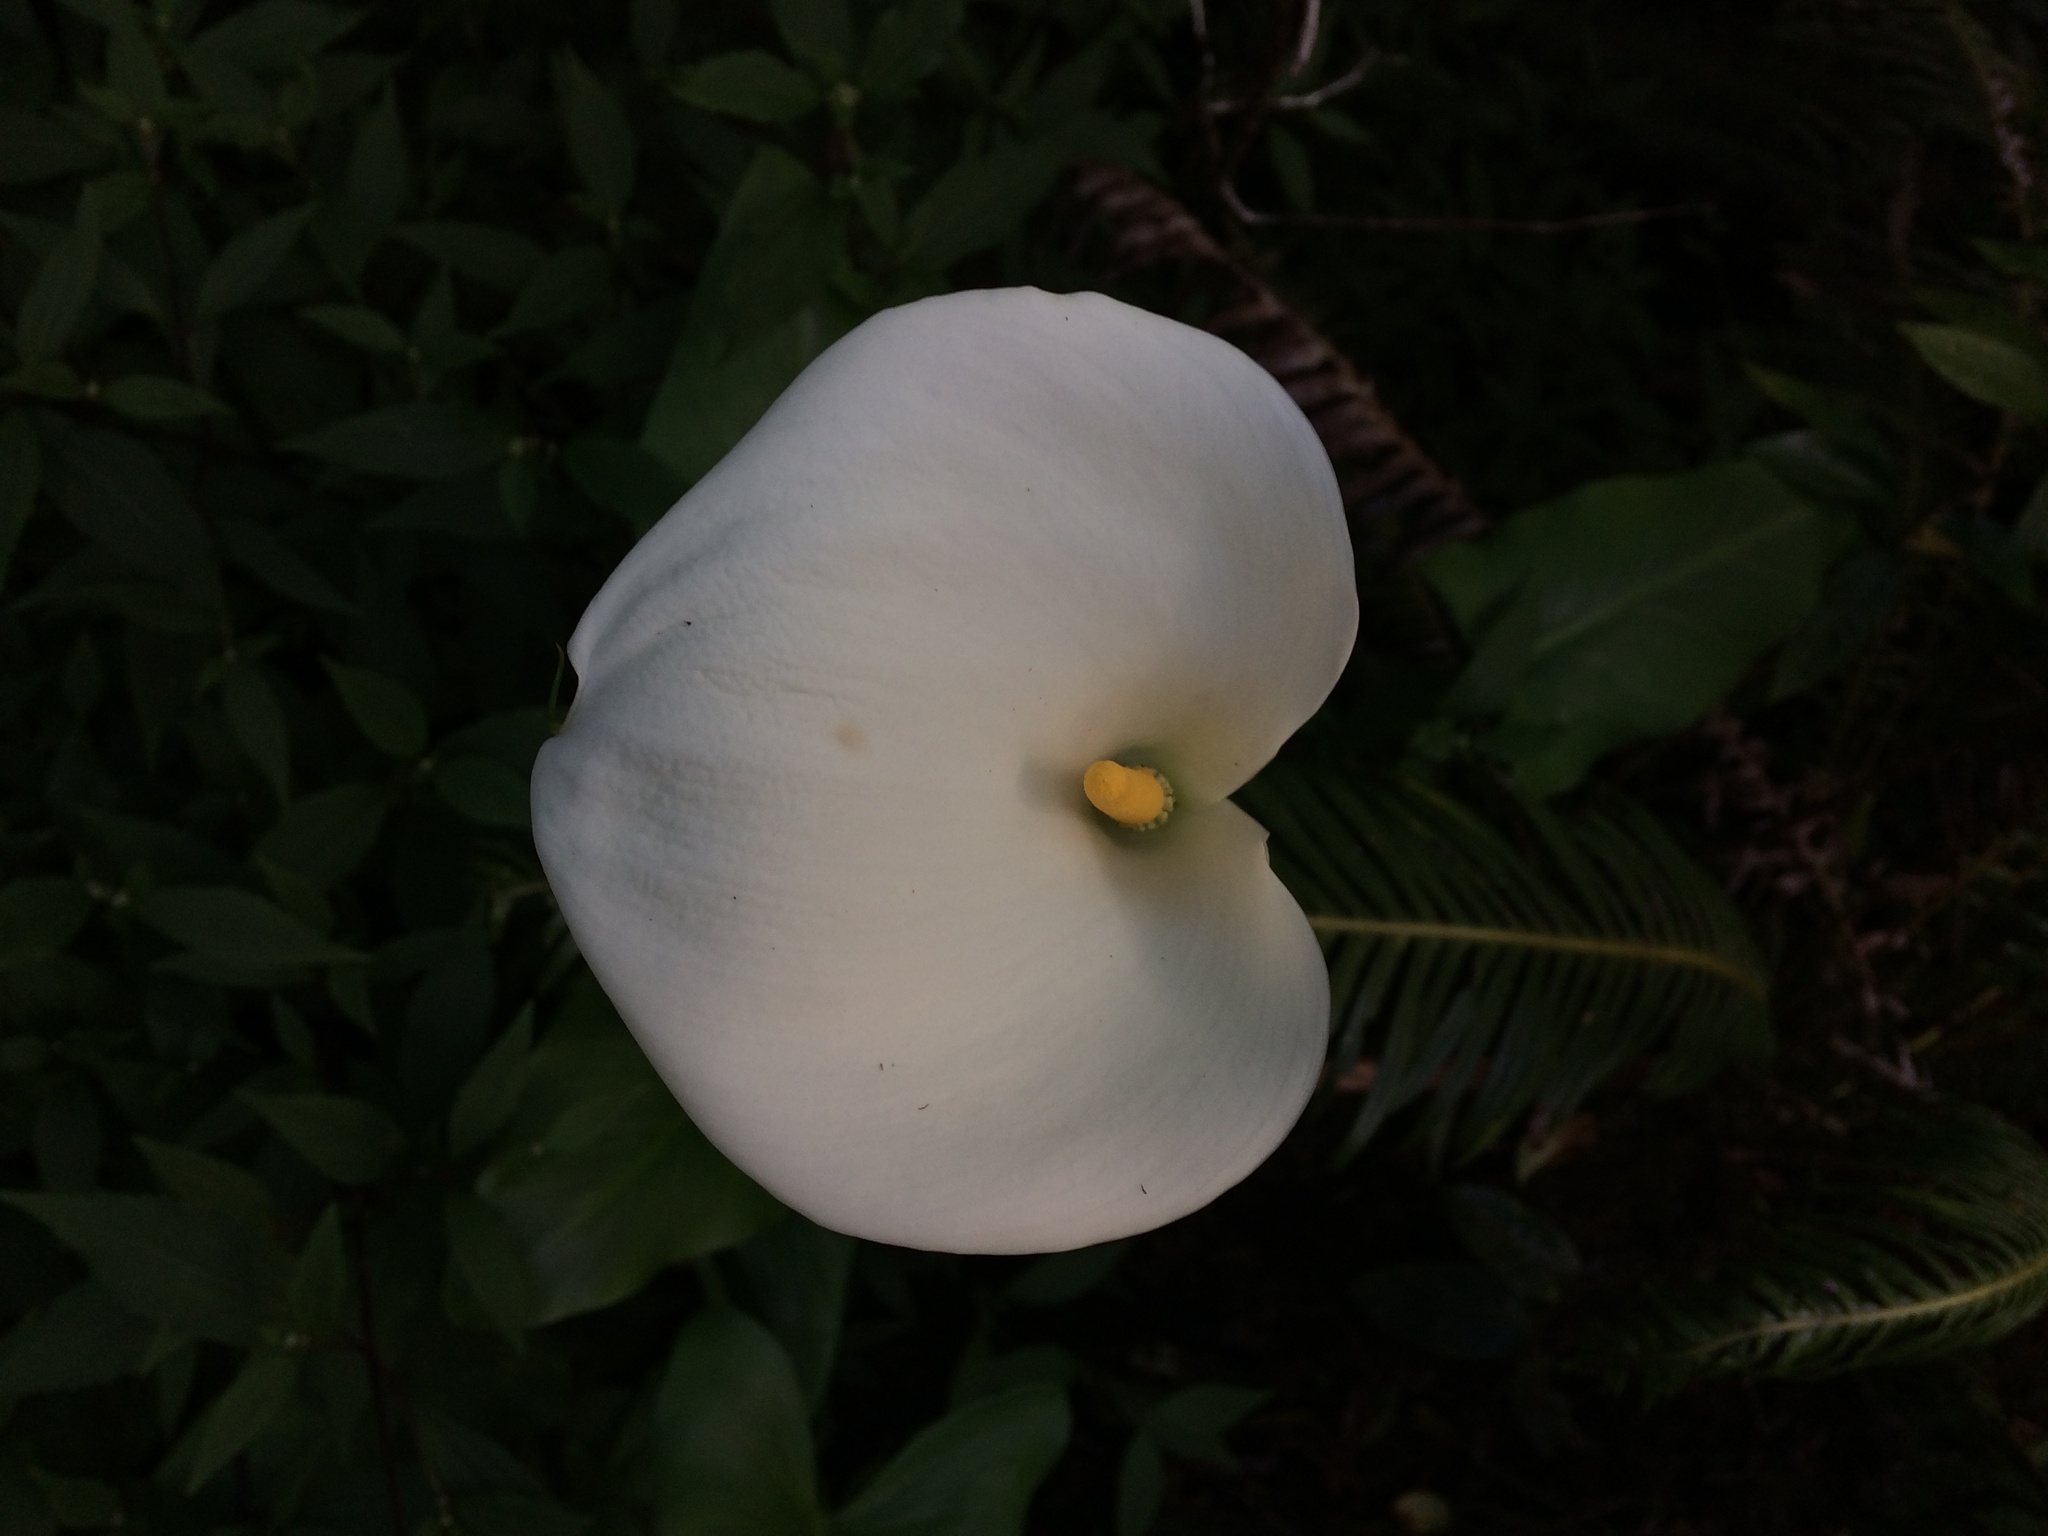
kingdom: Plantae
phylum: Tracheophyta
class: Liliopsida
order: Alismatales
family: Araceae
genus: Zantedeschia
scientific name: Zantedeschia aethiopica
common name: Altar-lily
